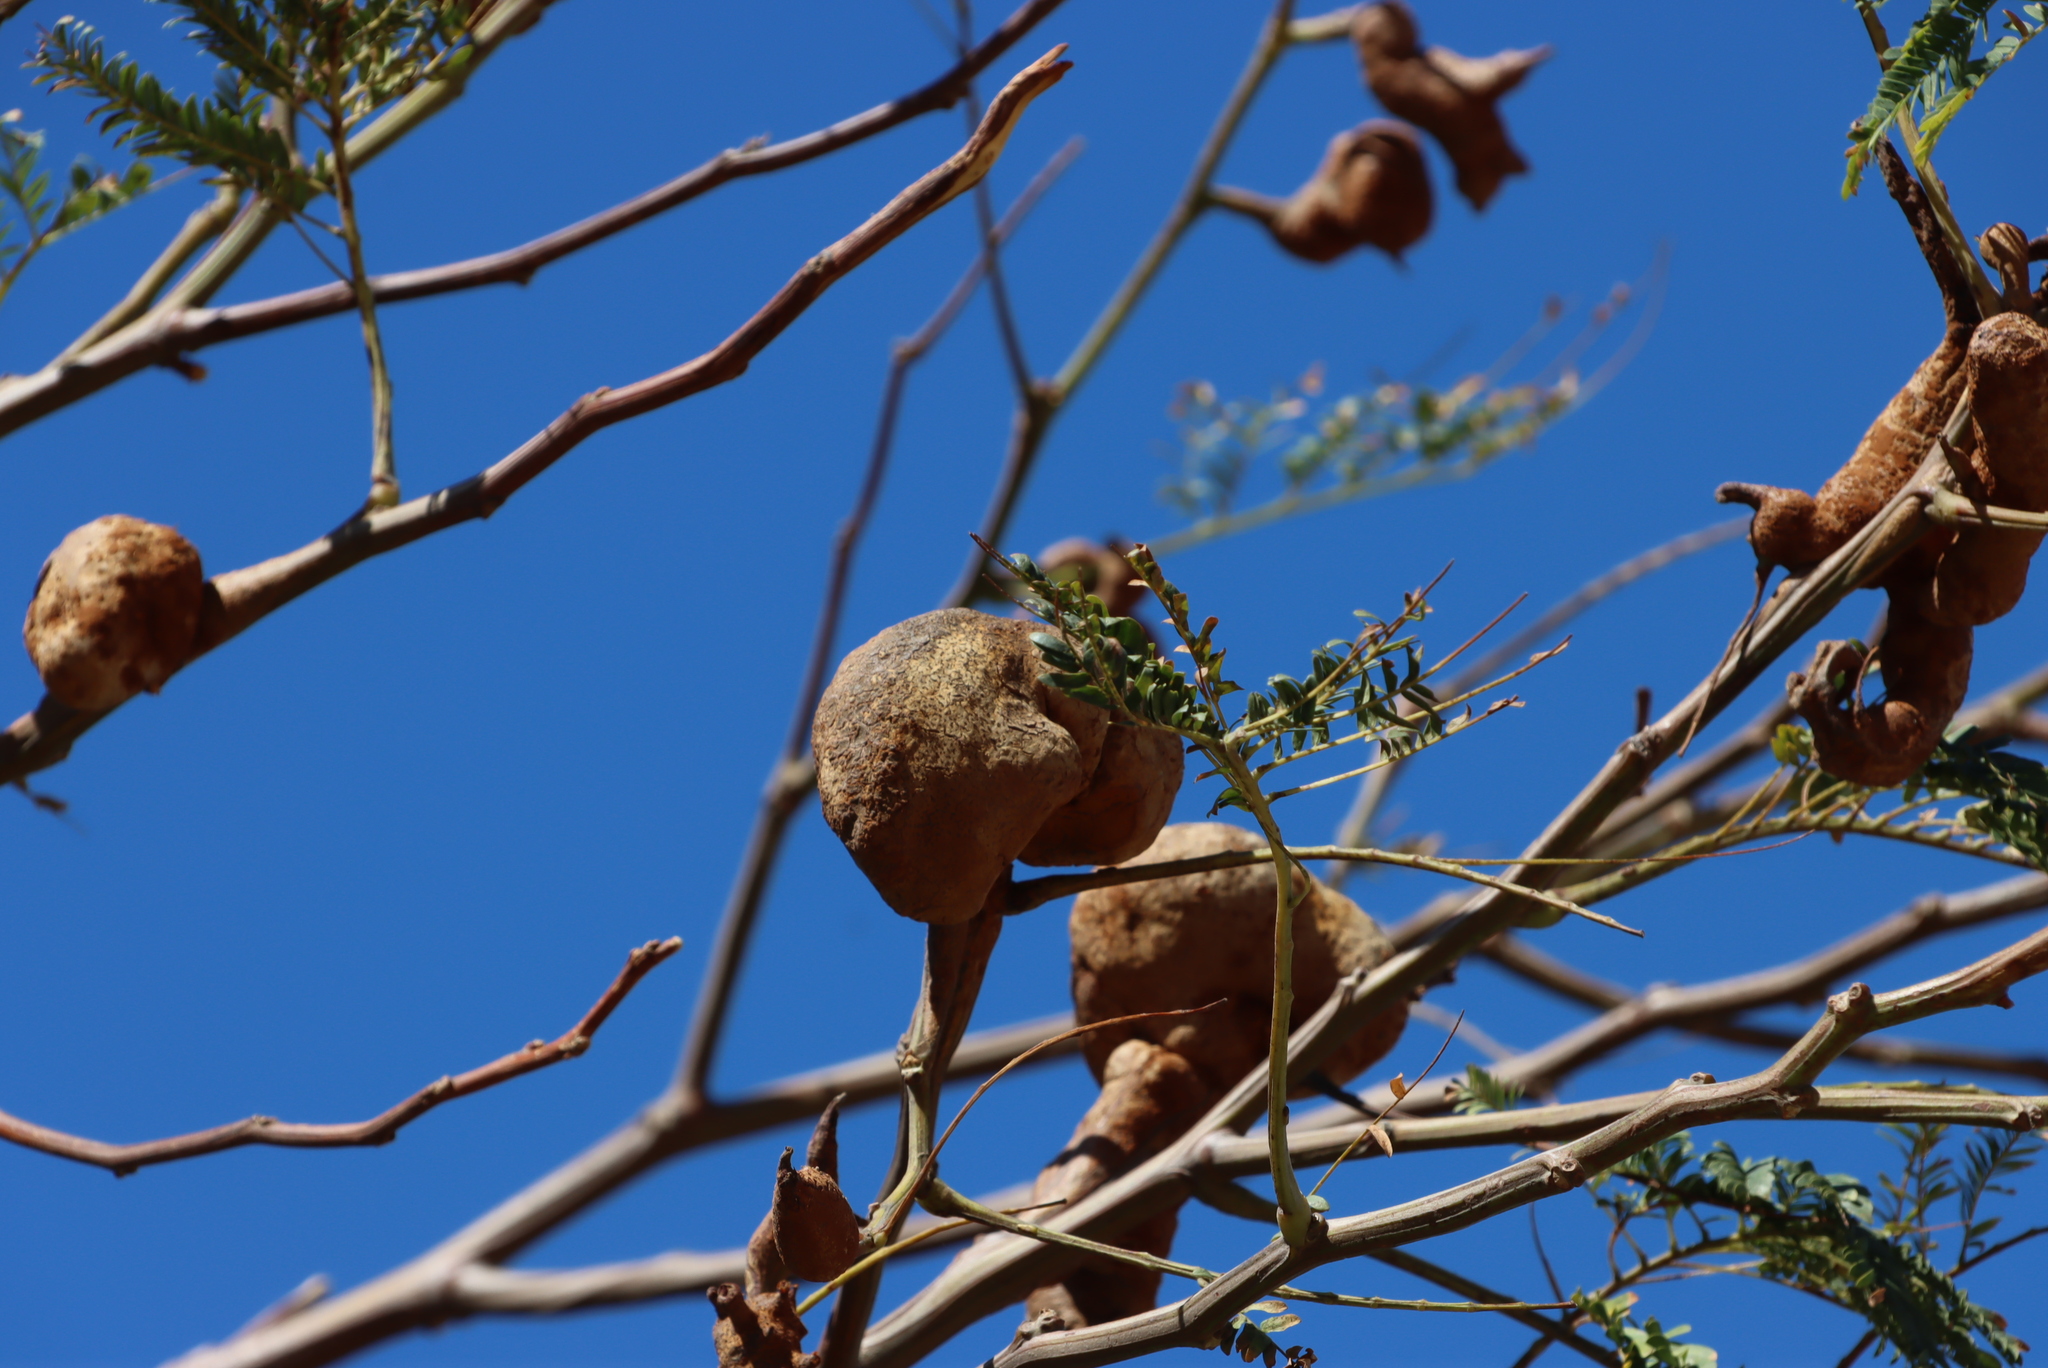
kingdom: Fungi
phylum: Basidiomycota
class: Pucciniomycetes
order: Pucciniales
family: Uromycladiaceae
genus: Uromycladium
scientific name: Uromycladium woodii
